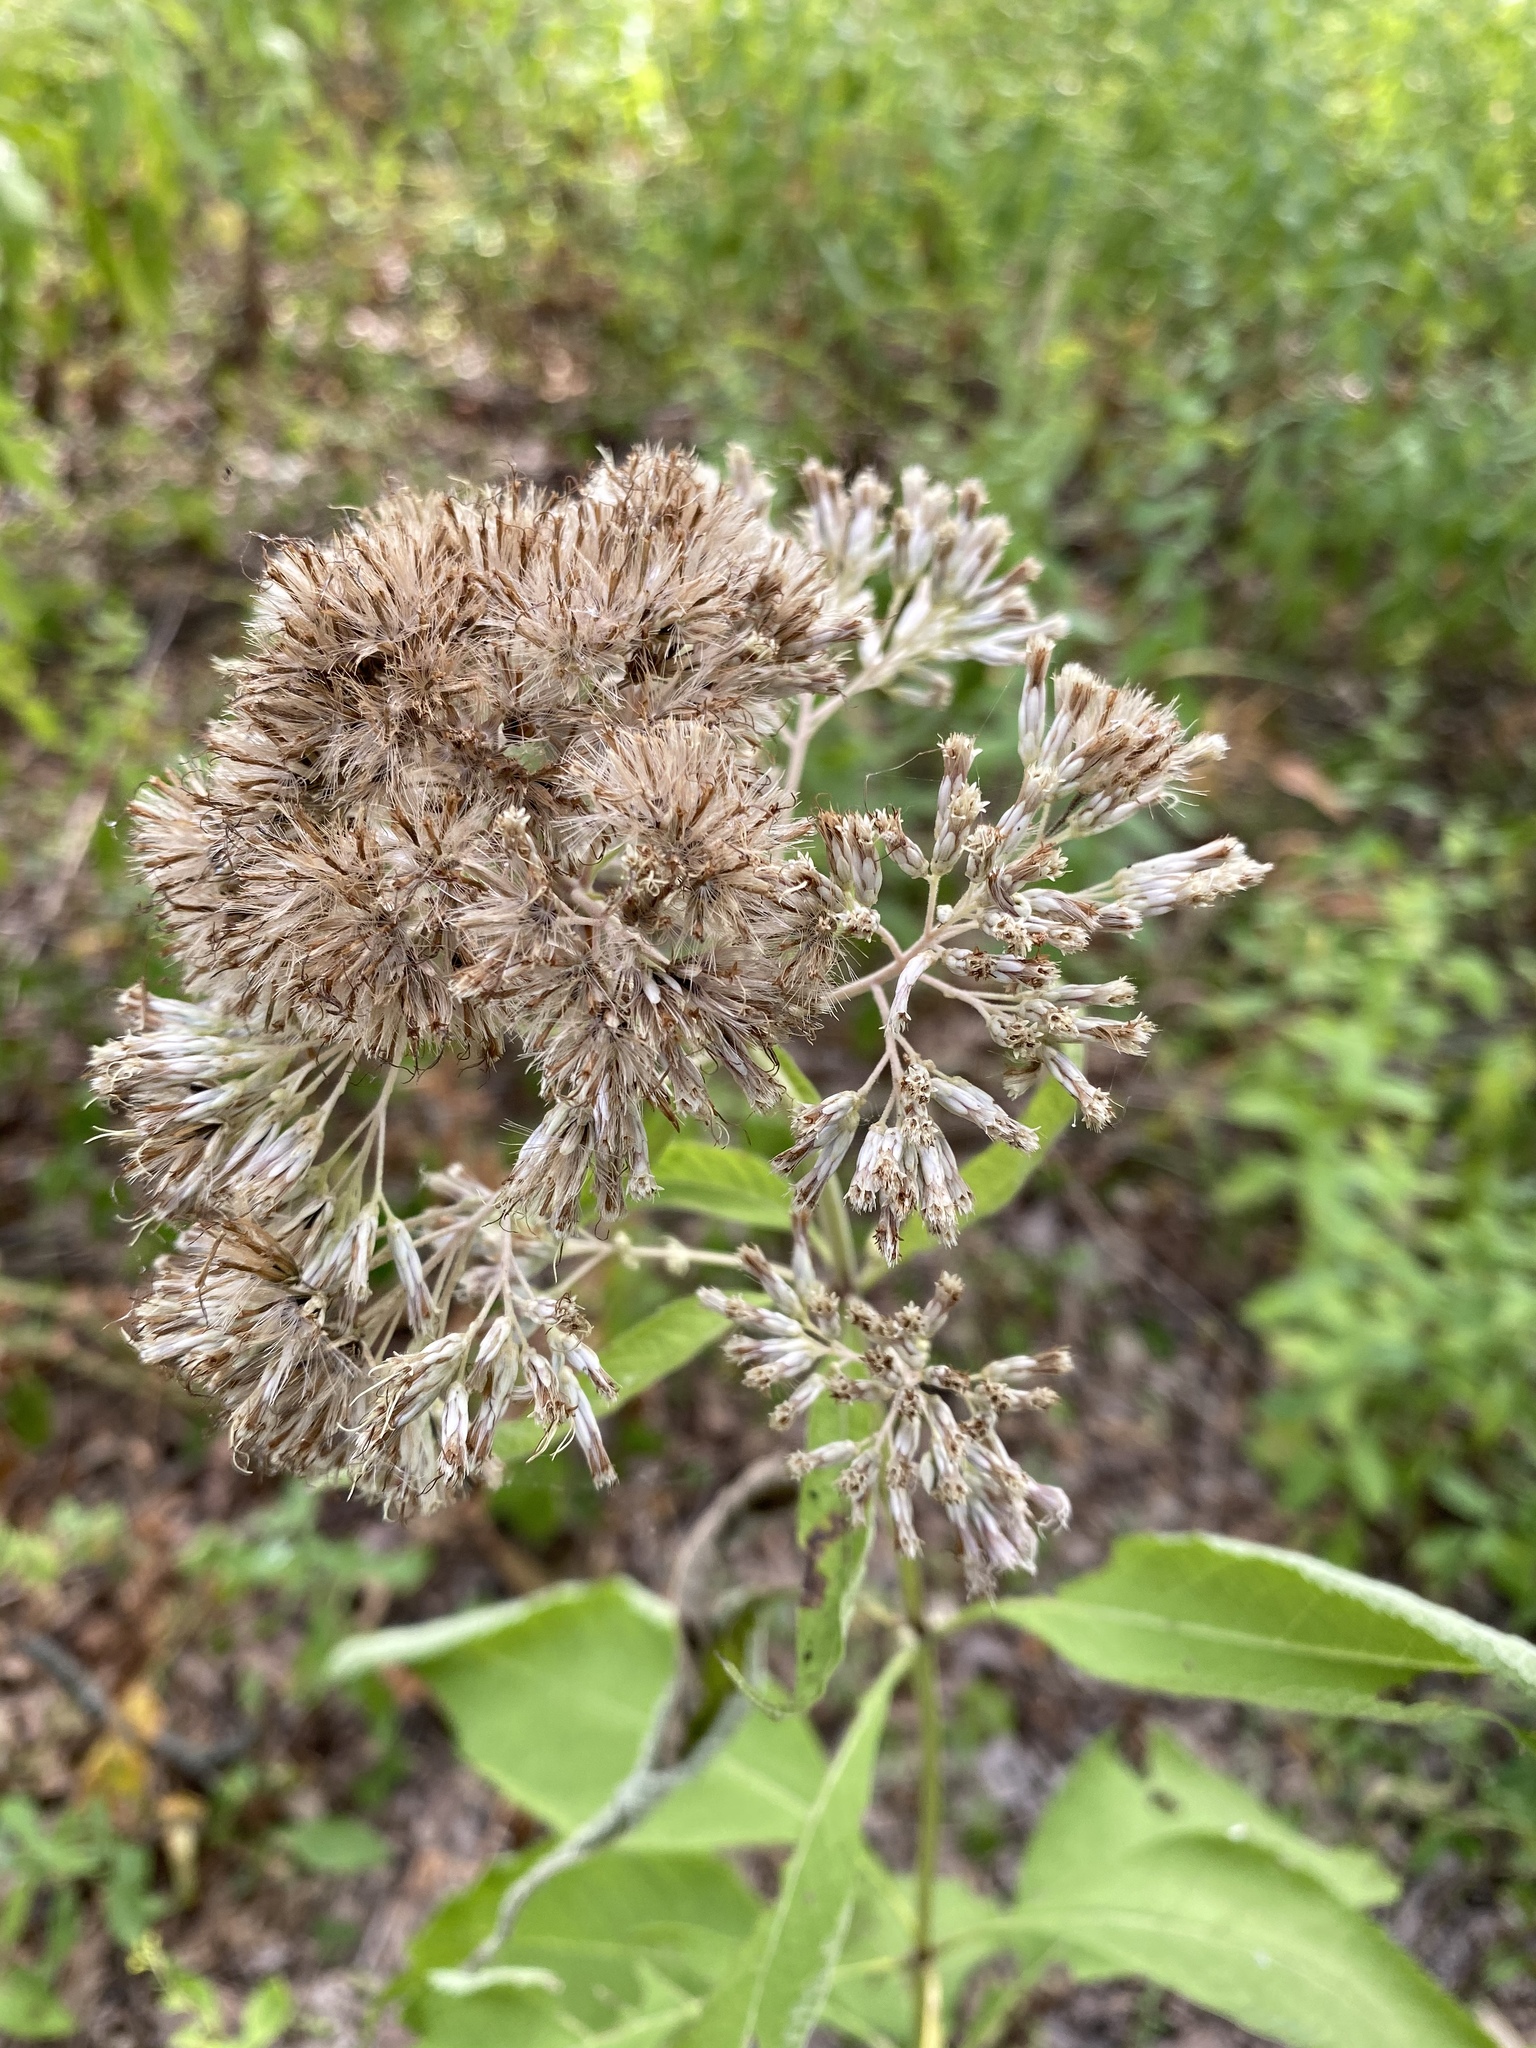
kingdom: Plantae
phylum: Tracheophyta
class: Magnoliopsida
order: Asterales
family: Asteraceae
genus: Eutrochium
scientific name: Eutrochium purpureum
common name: Gravelroot
